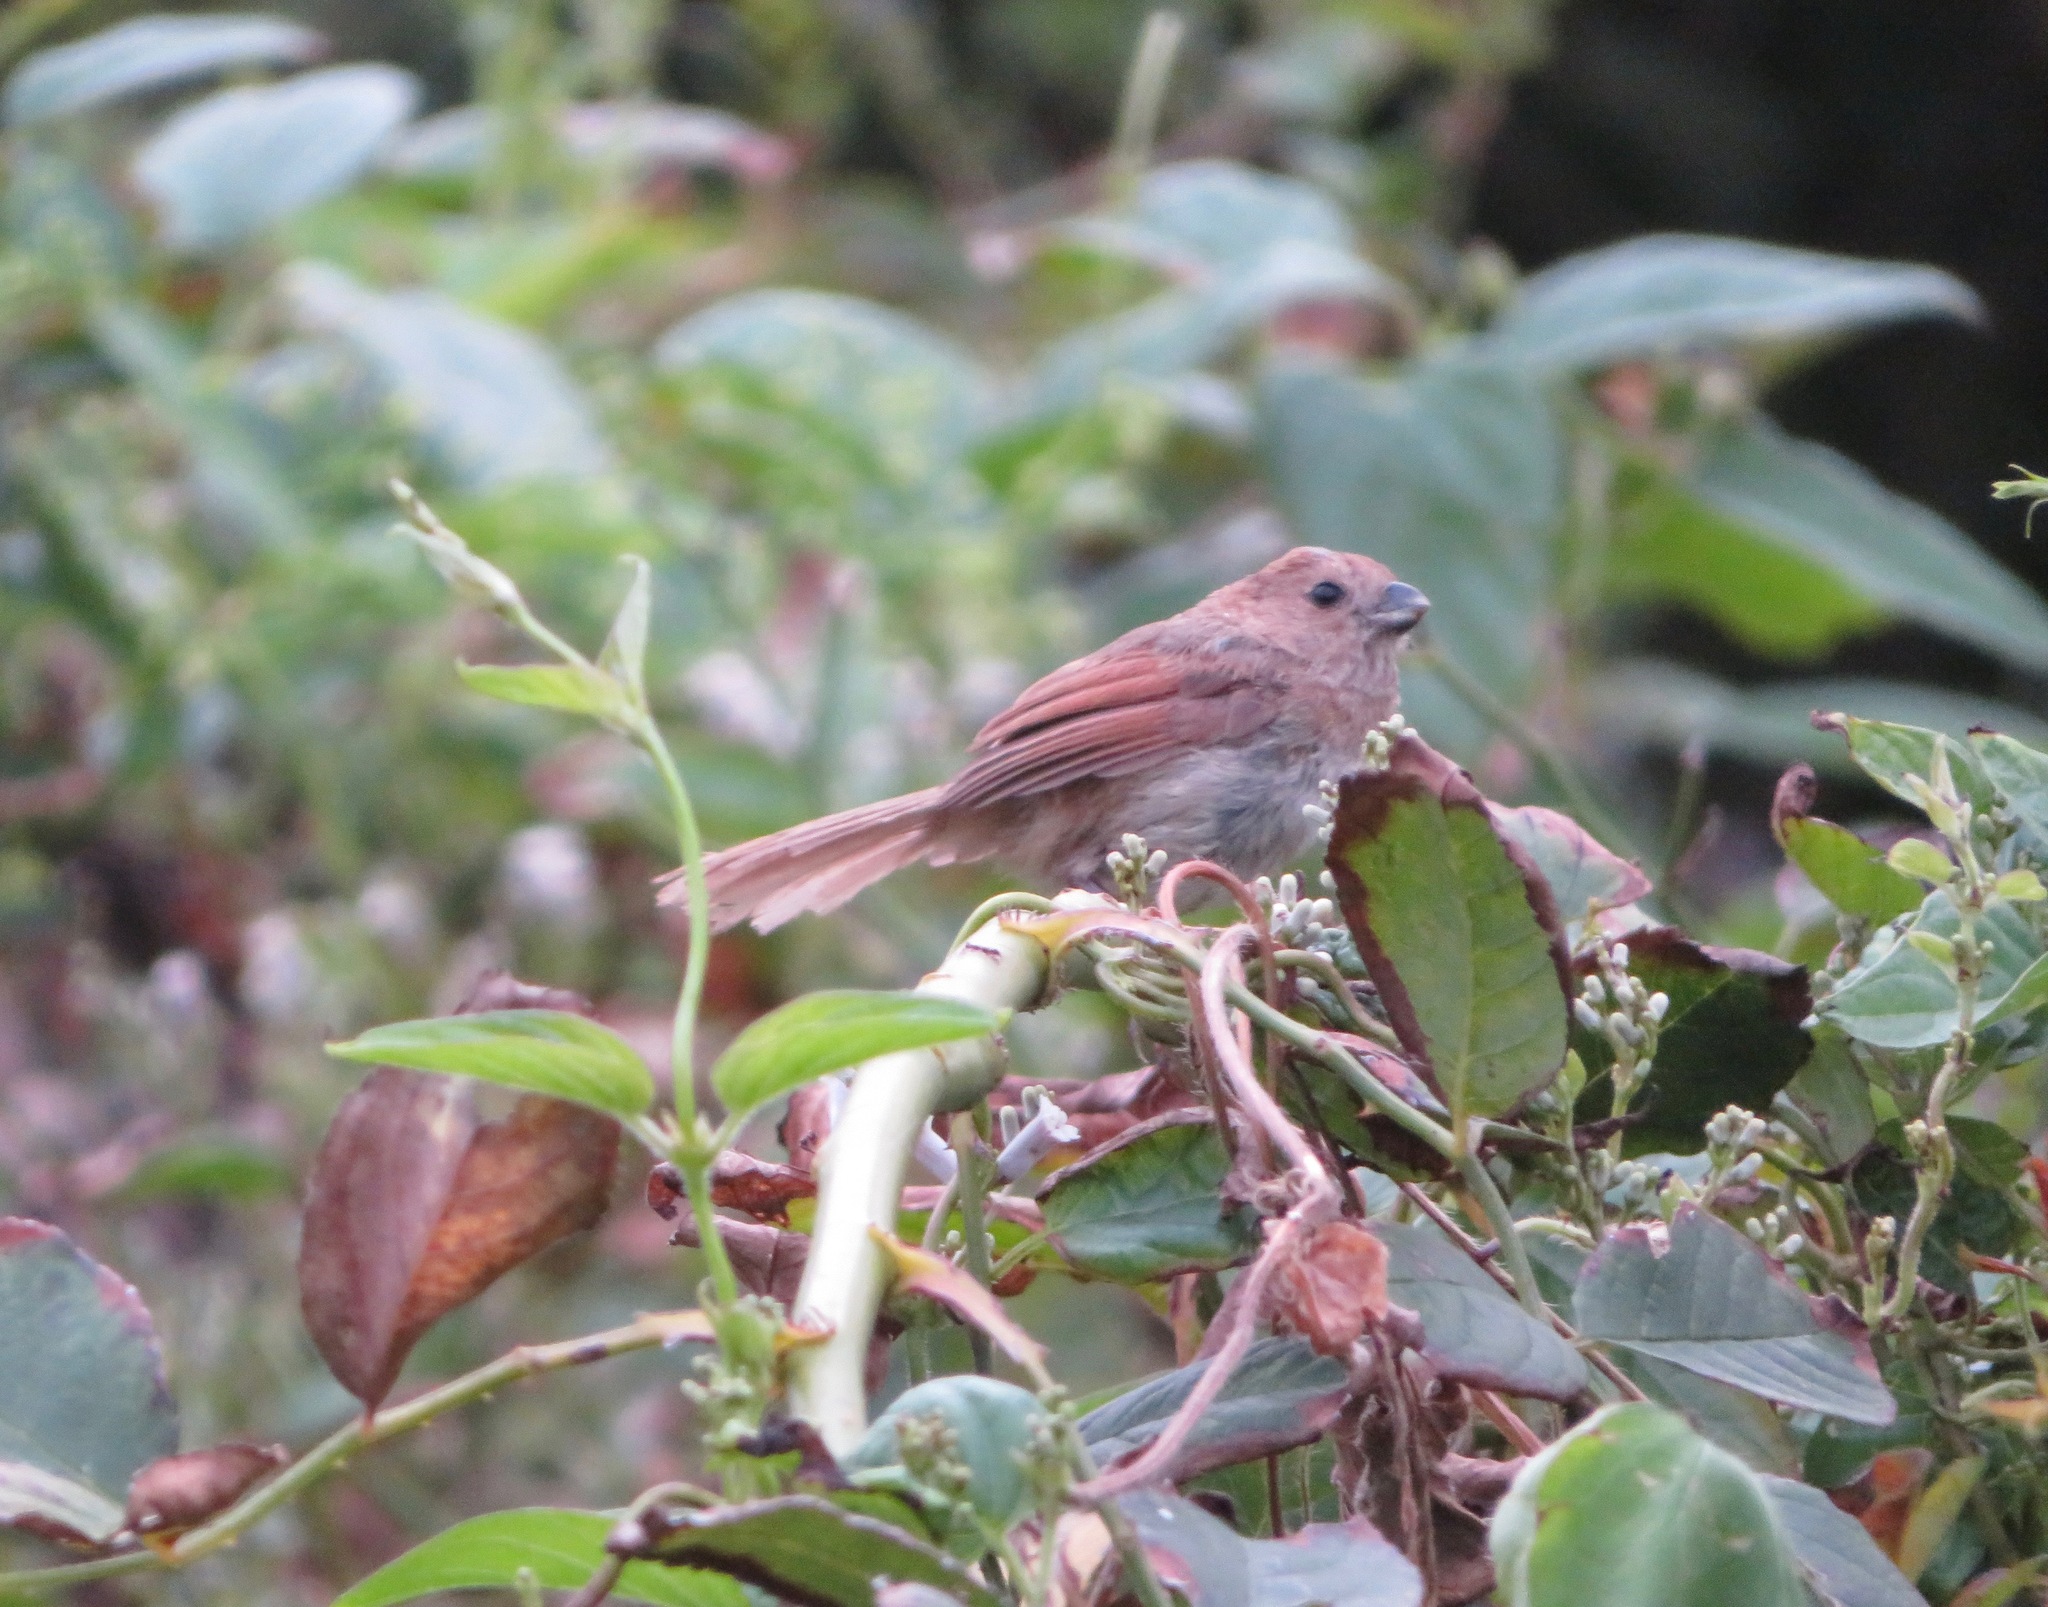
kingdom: Animalia
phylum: Chordata
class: Aves
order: Passeriformes
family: Sylviidae
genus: Sinosuthora
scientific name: Sinosuthora webbiana
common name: Vinous-throated parrotbill
